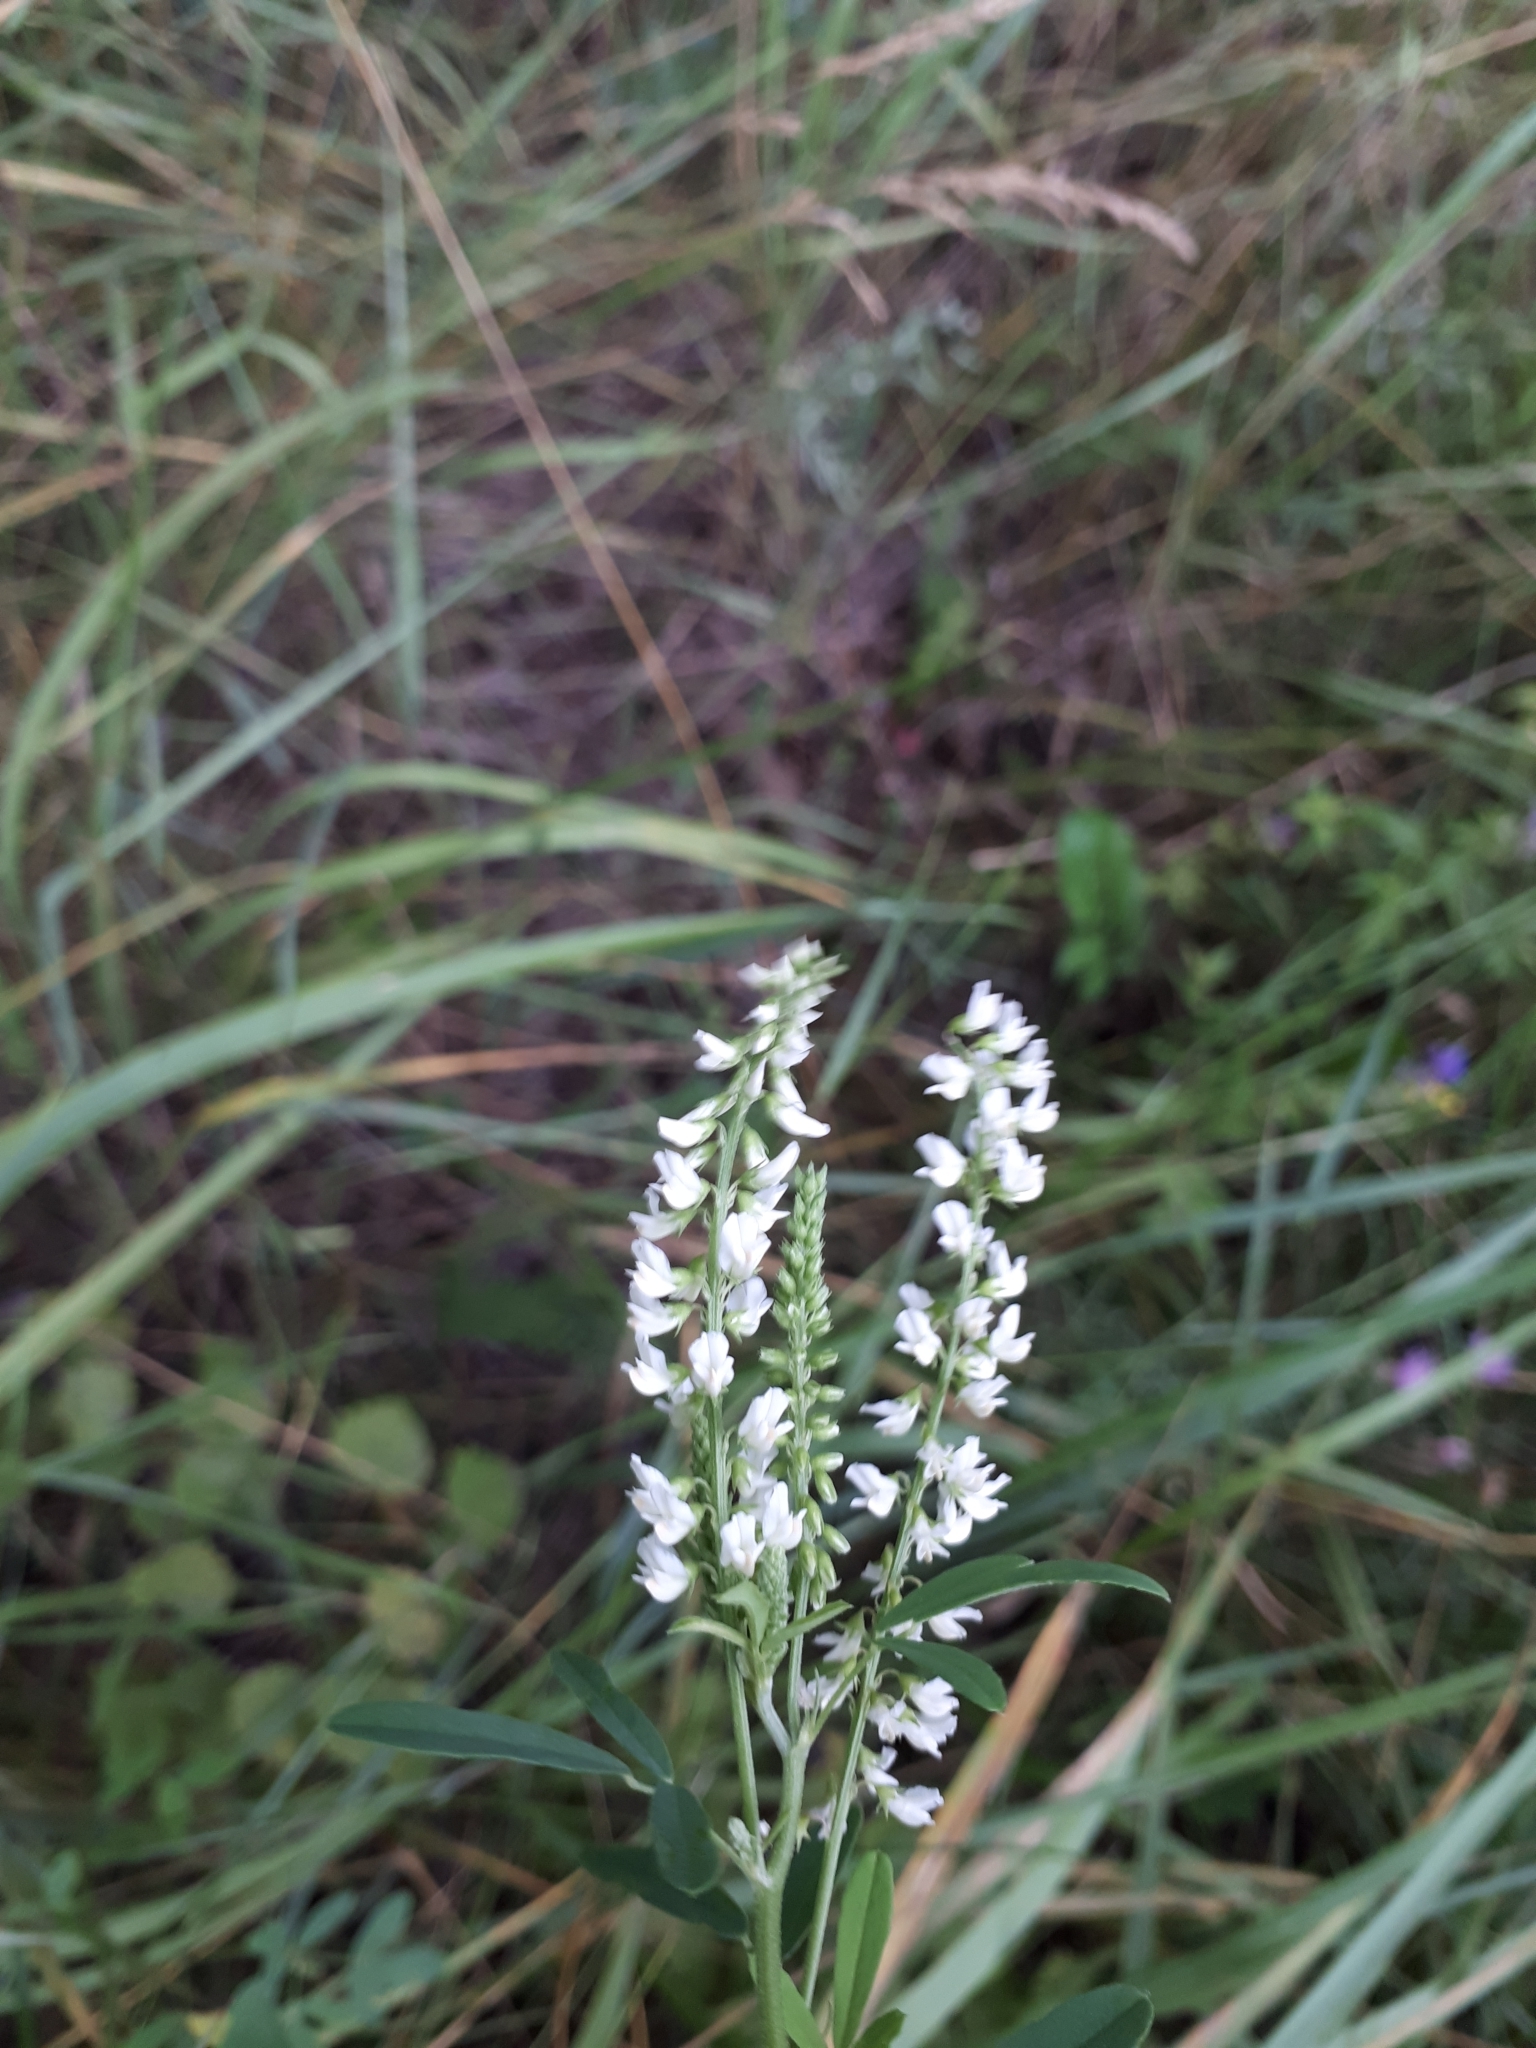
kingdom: Plantae
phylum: Tracheophyta
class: Magnoliopsida
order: Fabales
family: Fabaceae
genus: Melilotus
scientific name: Melilotus albus
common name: White melilot
